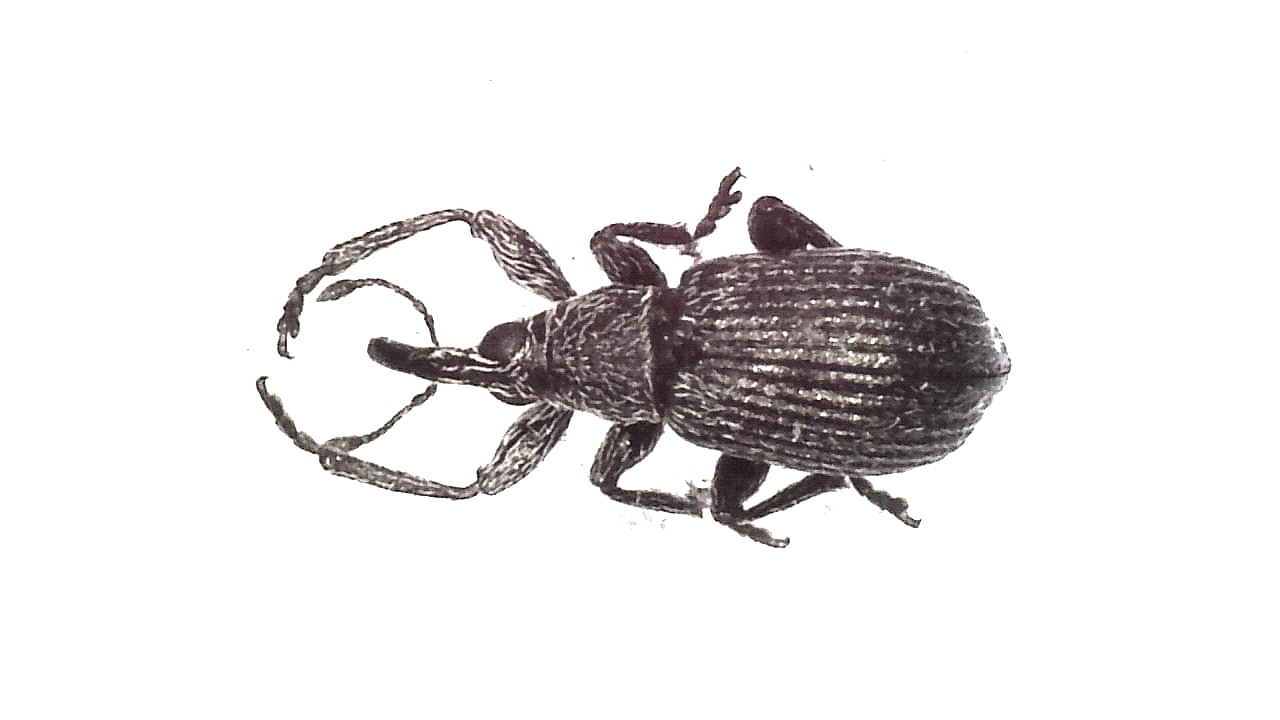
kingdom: Animalia
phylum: Arthropoda
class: Insecta
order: Coleoptera
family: Brentidae
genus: Betulapion
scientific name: Betulapion simile
